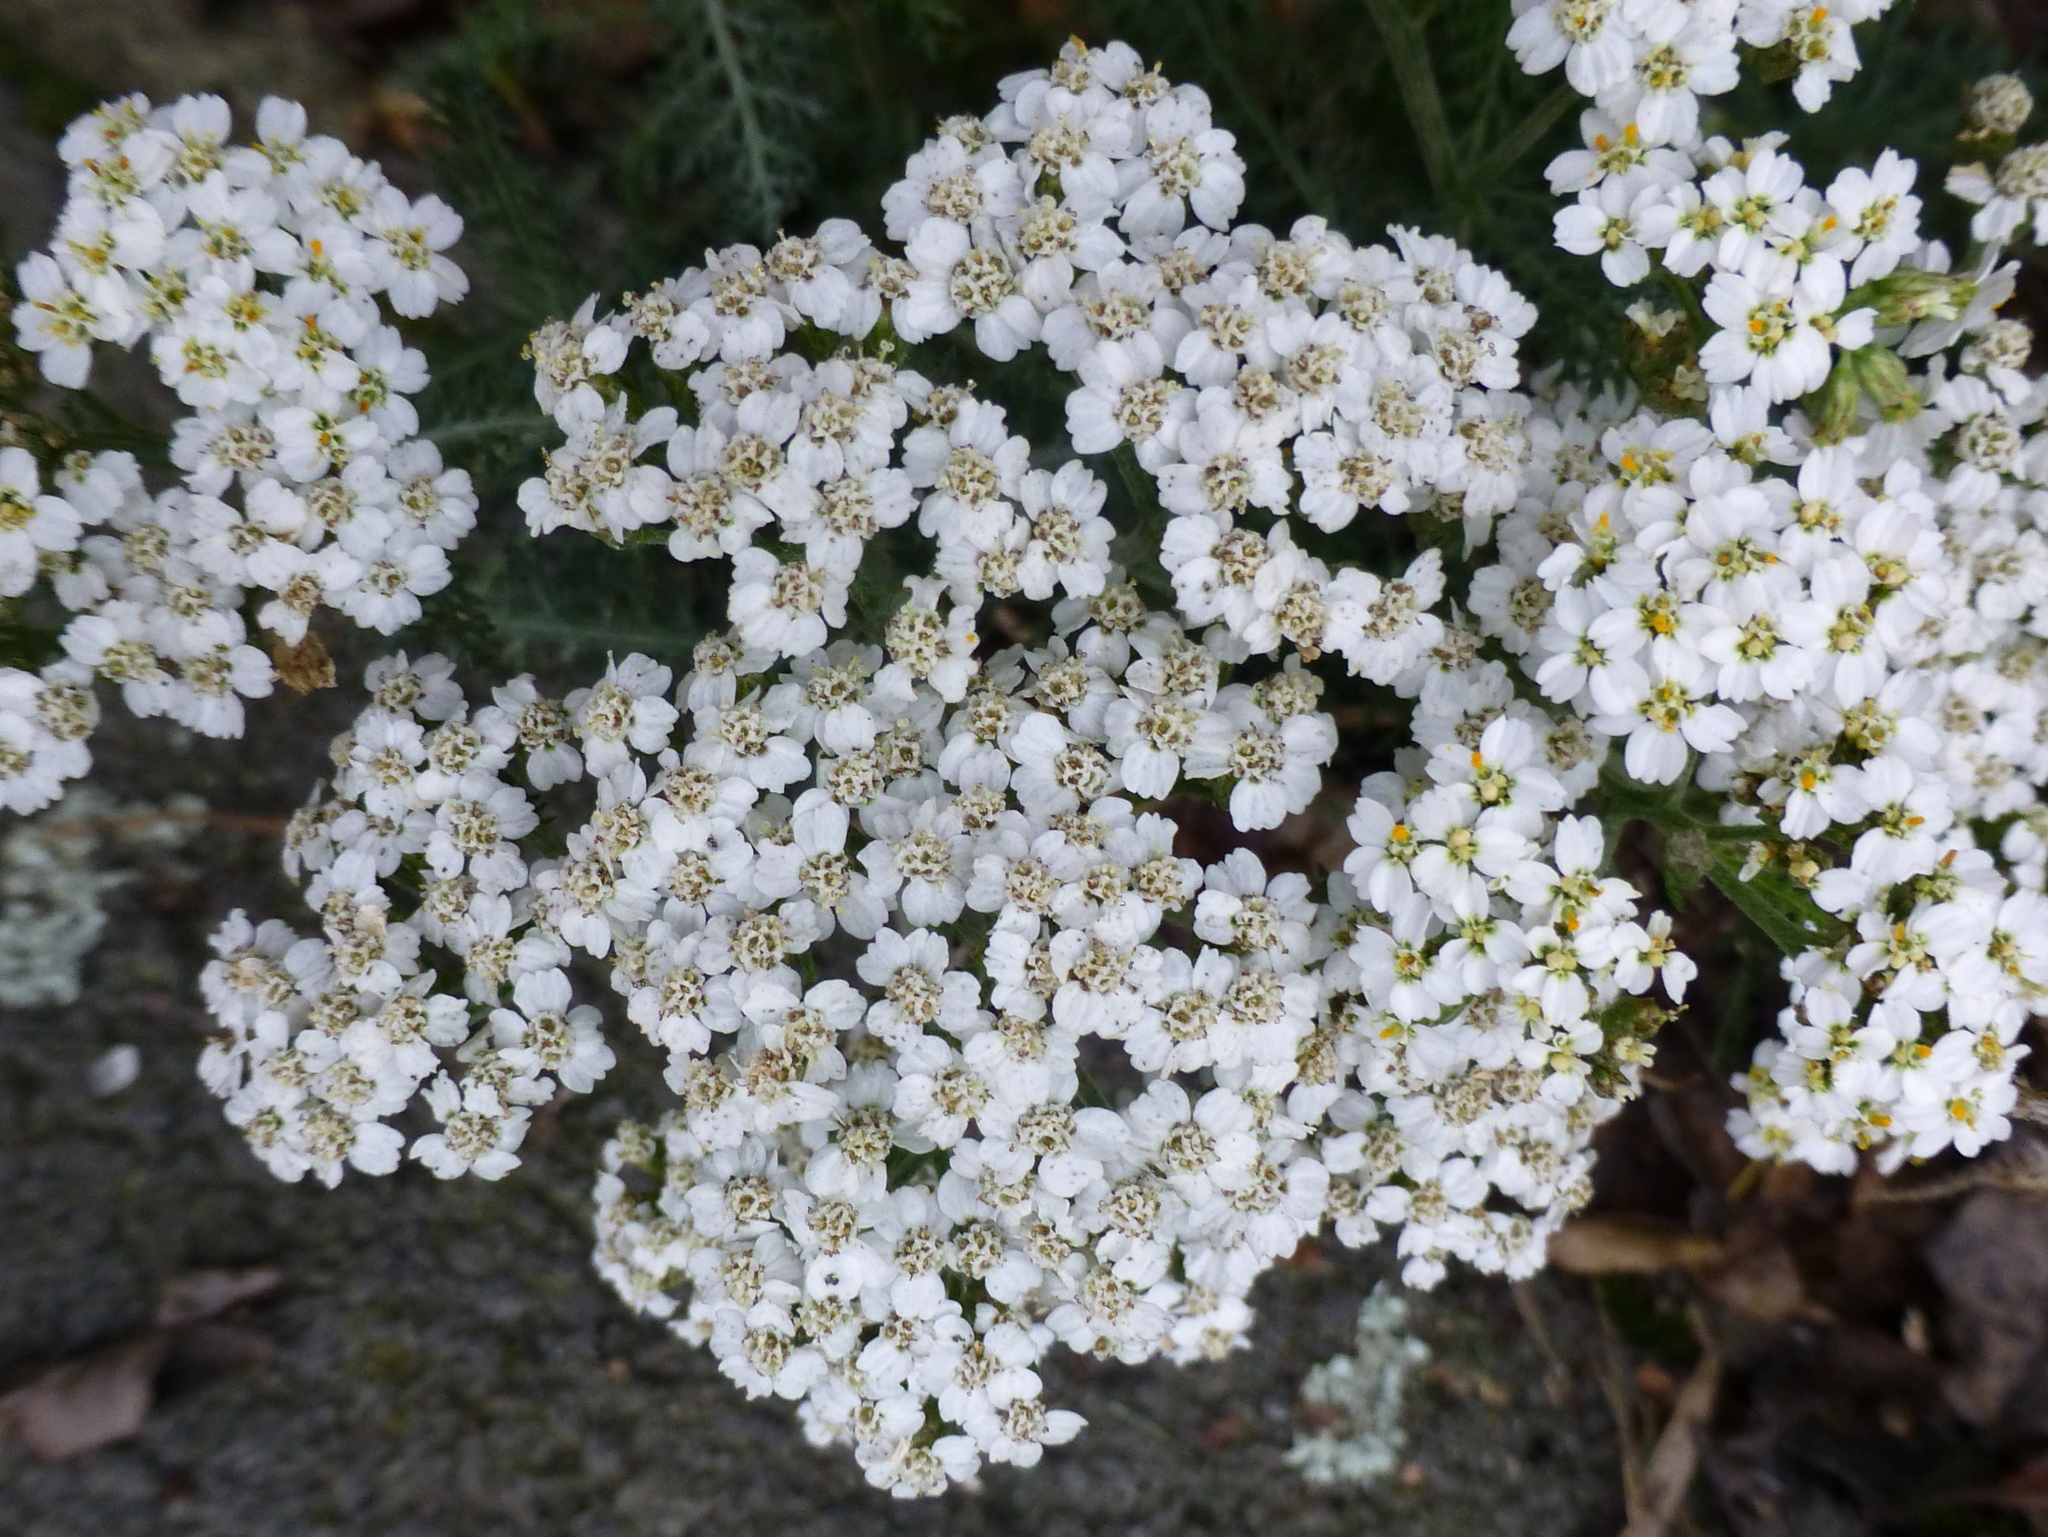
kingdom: Plantae
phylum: Tracheophyta
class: Magnoliopsida
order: Asterales
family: Asteraceae
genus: Achillea
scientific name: Achillea millefolium
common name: Yarrow
